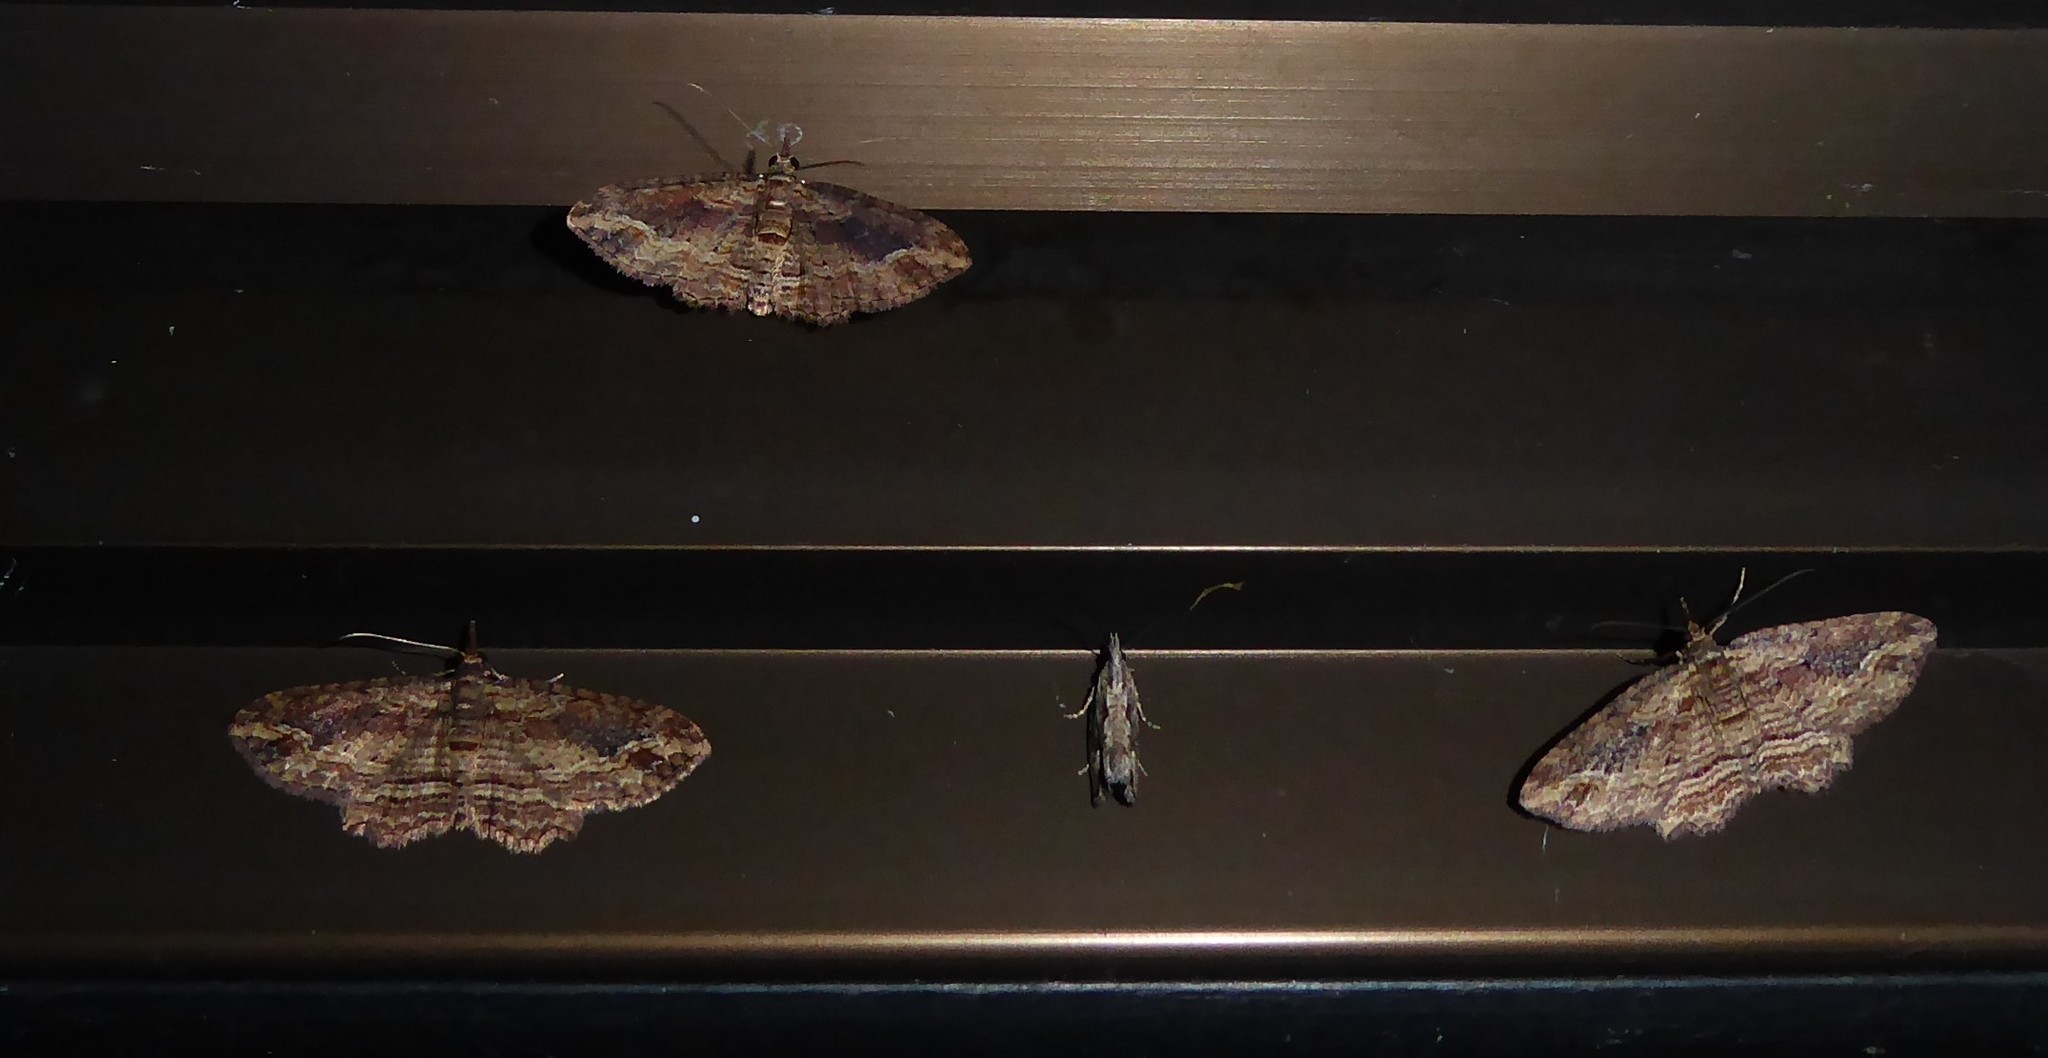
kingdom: Animalia
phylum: Arthropoda
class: Insecta
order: Lepidoptera
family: Tortricidae
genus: Strepsicrates
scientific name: Strepsicrates ejectana
